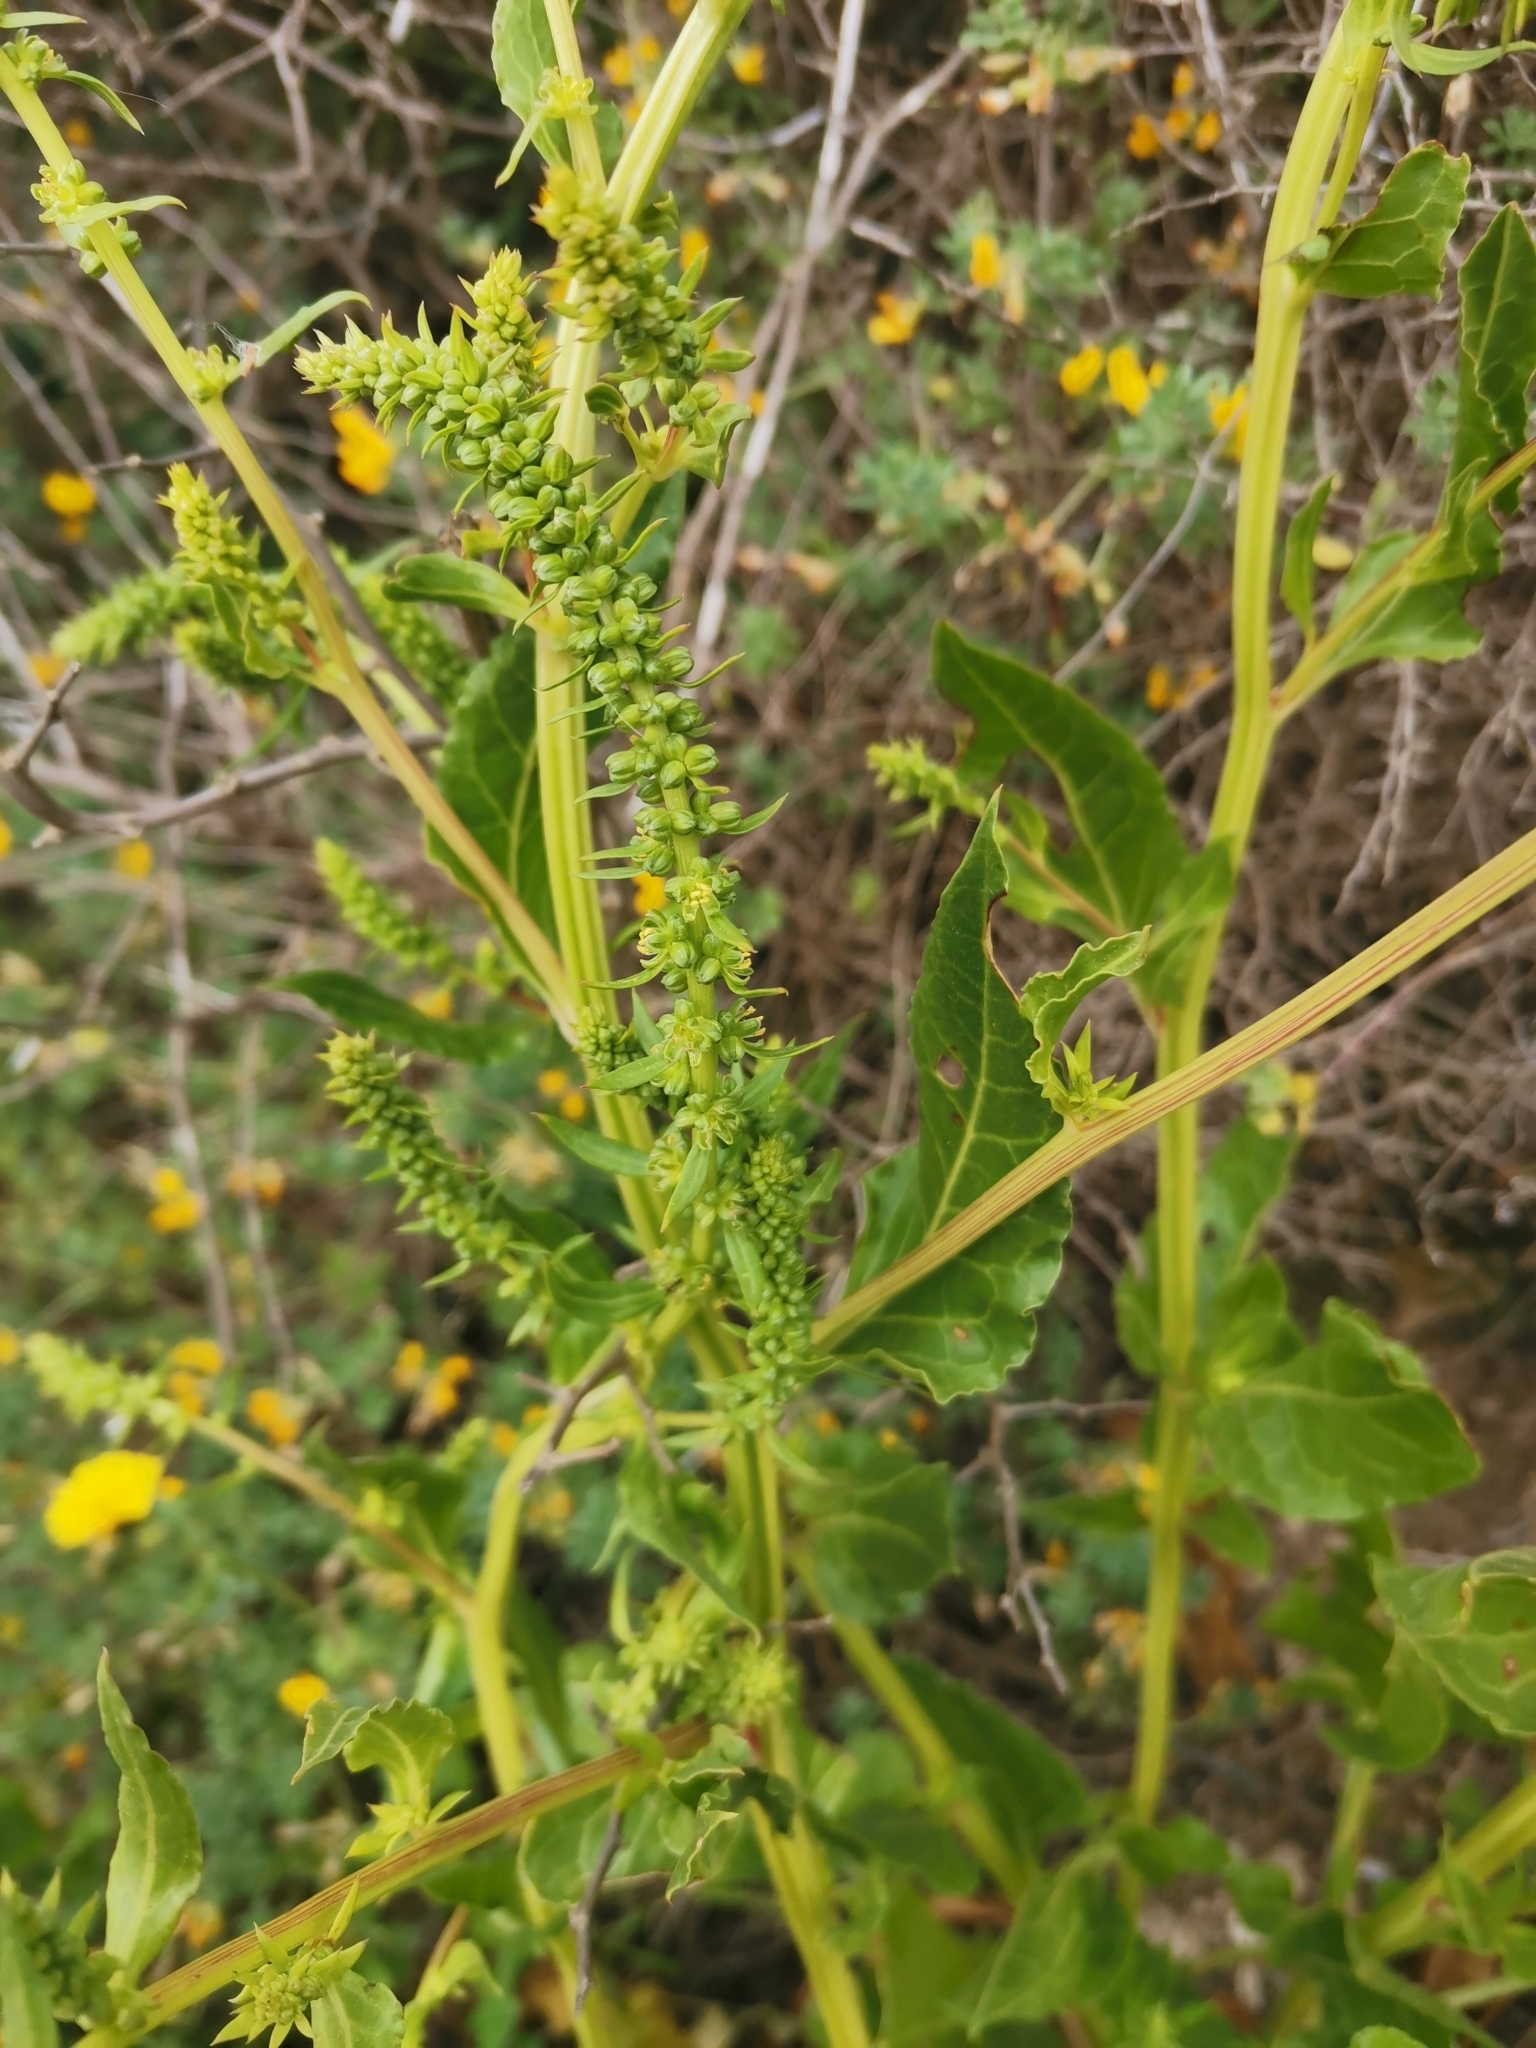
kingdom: Plantae
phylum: Tracheophyta
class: Magnoliopsida
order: Caryophyllales
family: Amaranthaceae
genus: Beta
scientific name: Beta vulgaris
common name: Beet
